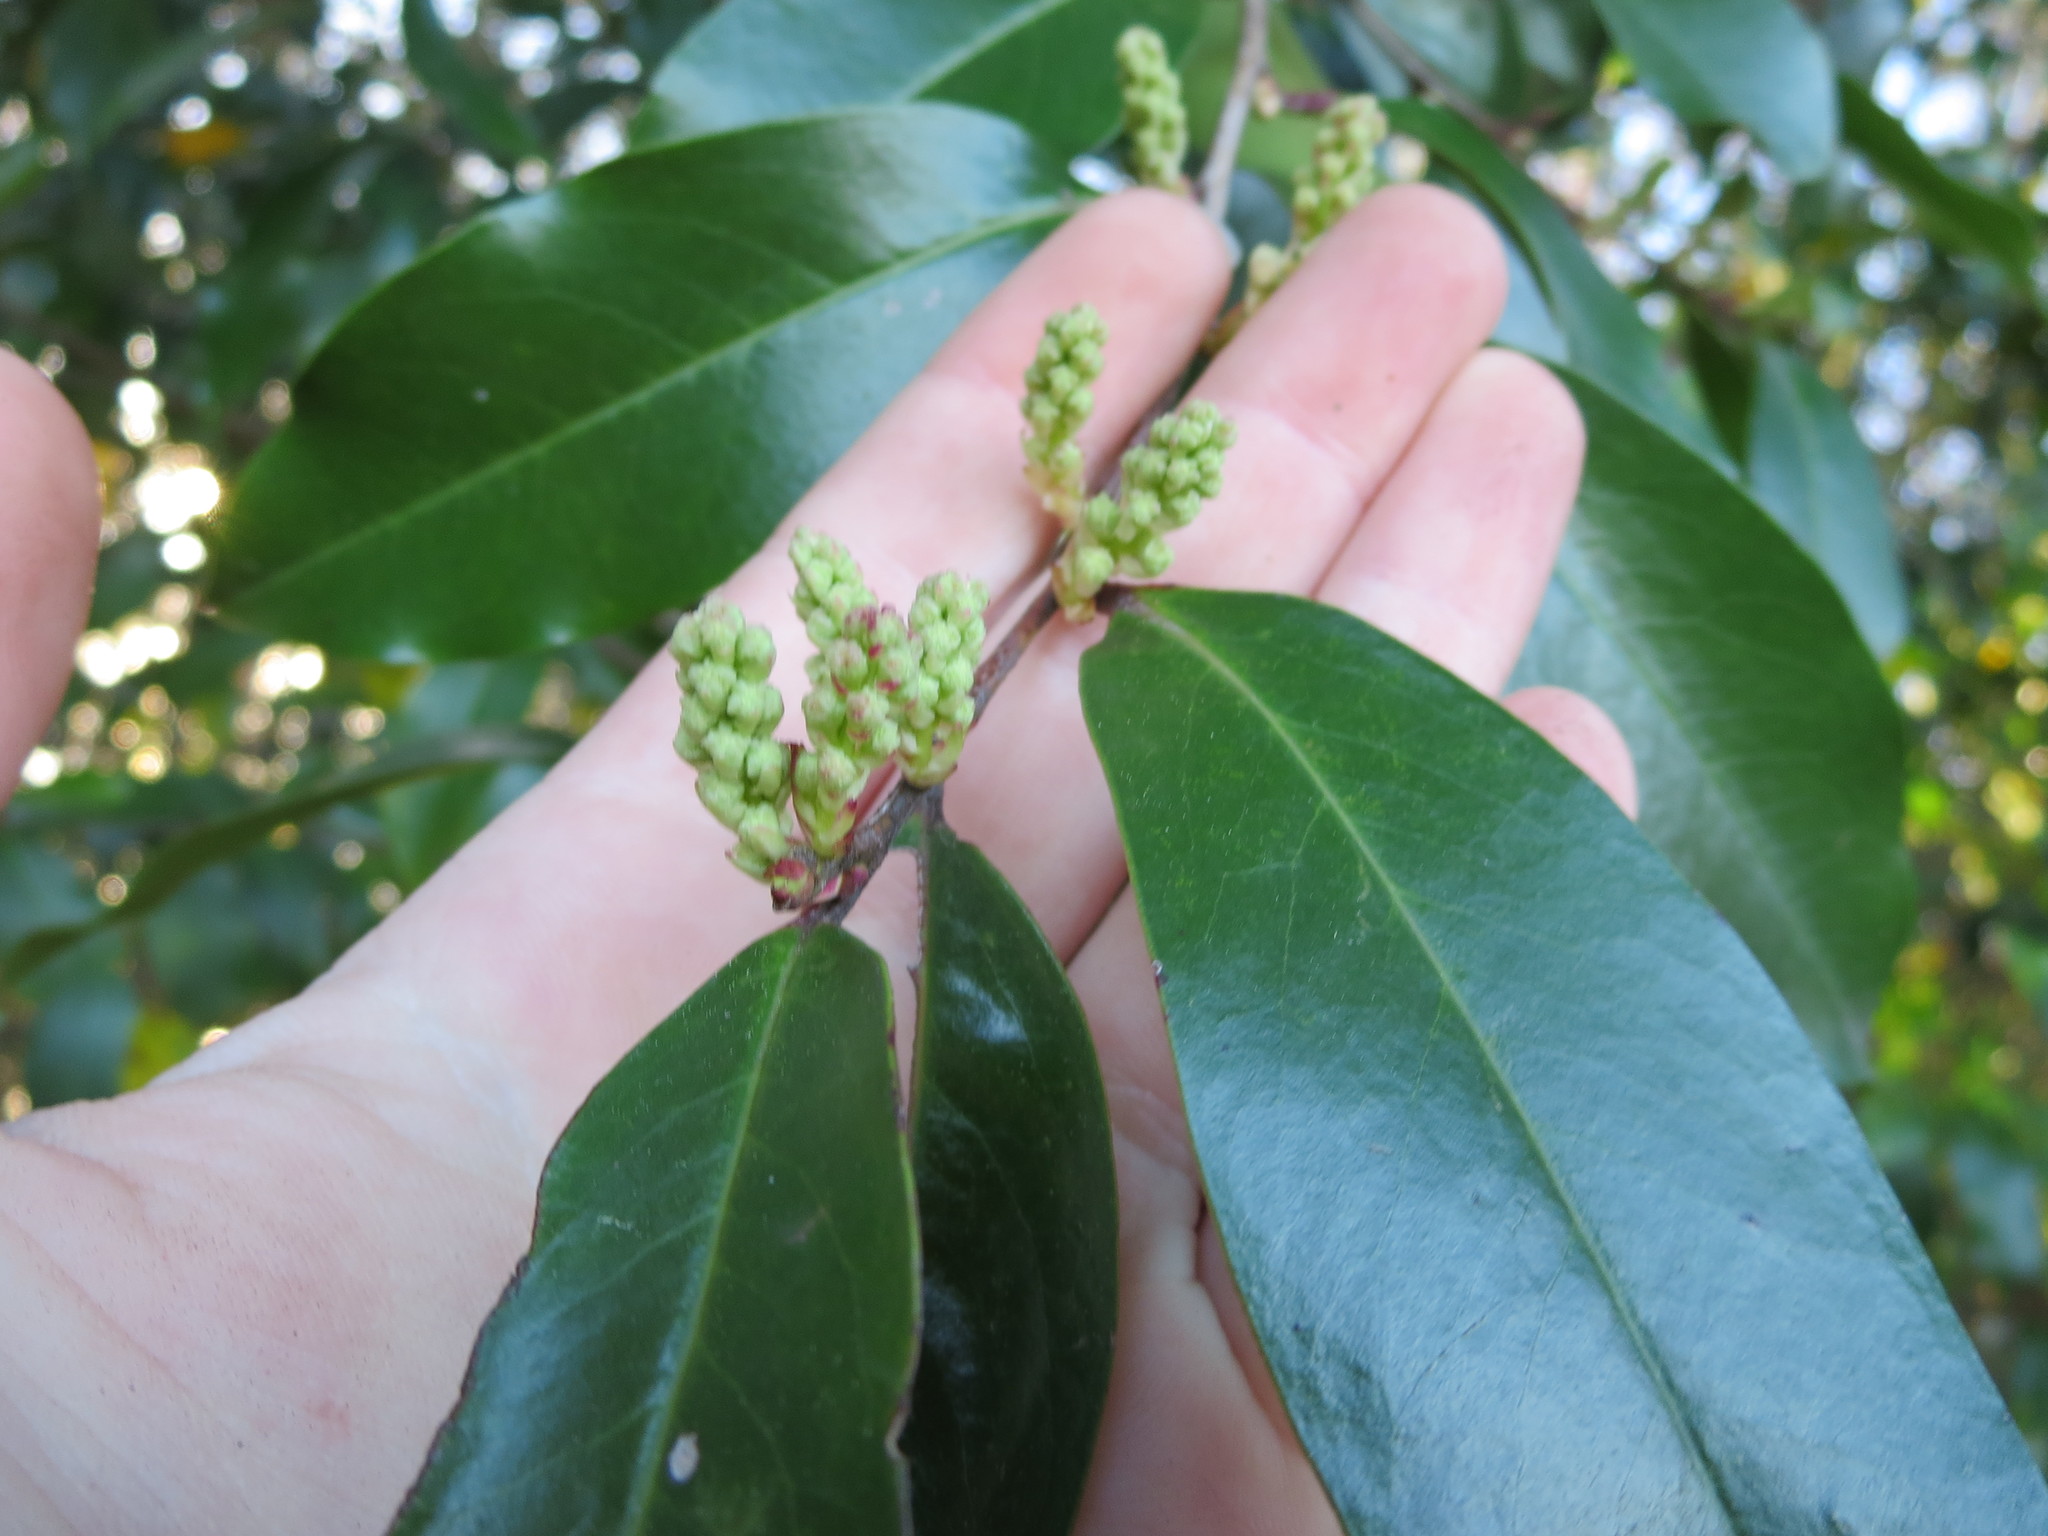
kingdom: Plantae
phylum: Tracheophyta
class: Magnoliopsida
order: Rosales
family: Rosaceae
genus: Prunus
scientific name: Prunus caroliniana
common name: Carolina laurel cherry
